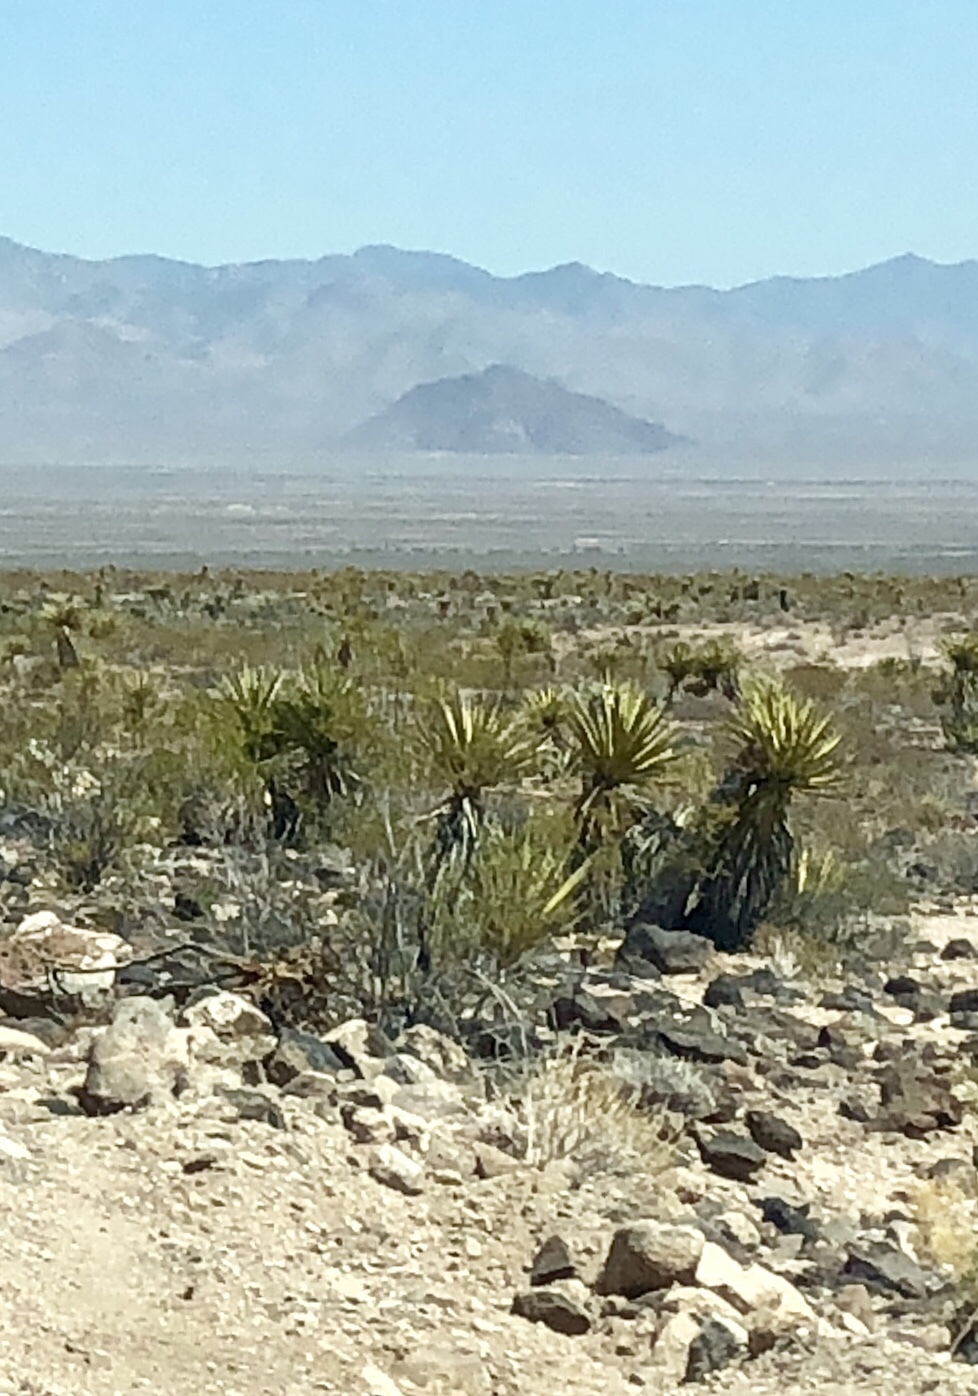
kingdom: Plantae
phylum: Tracheophyta
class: Liliopsida
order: Asparagales
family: Asparagaceae
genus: Yucca
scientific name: Yucca schidigera
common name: Mojave yucca
